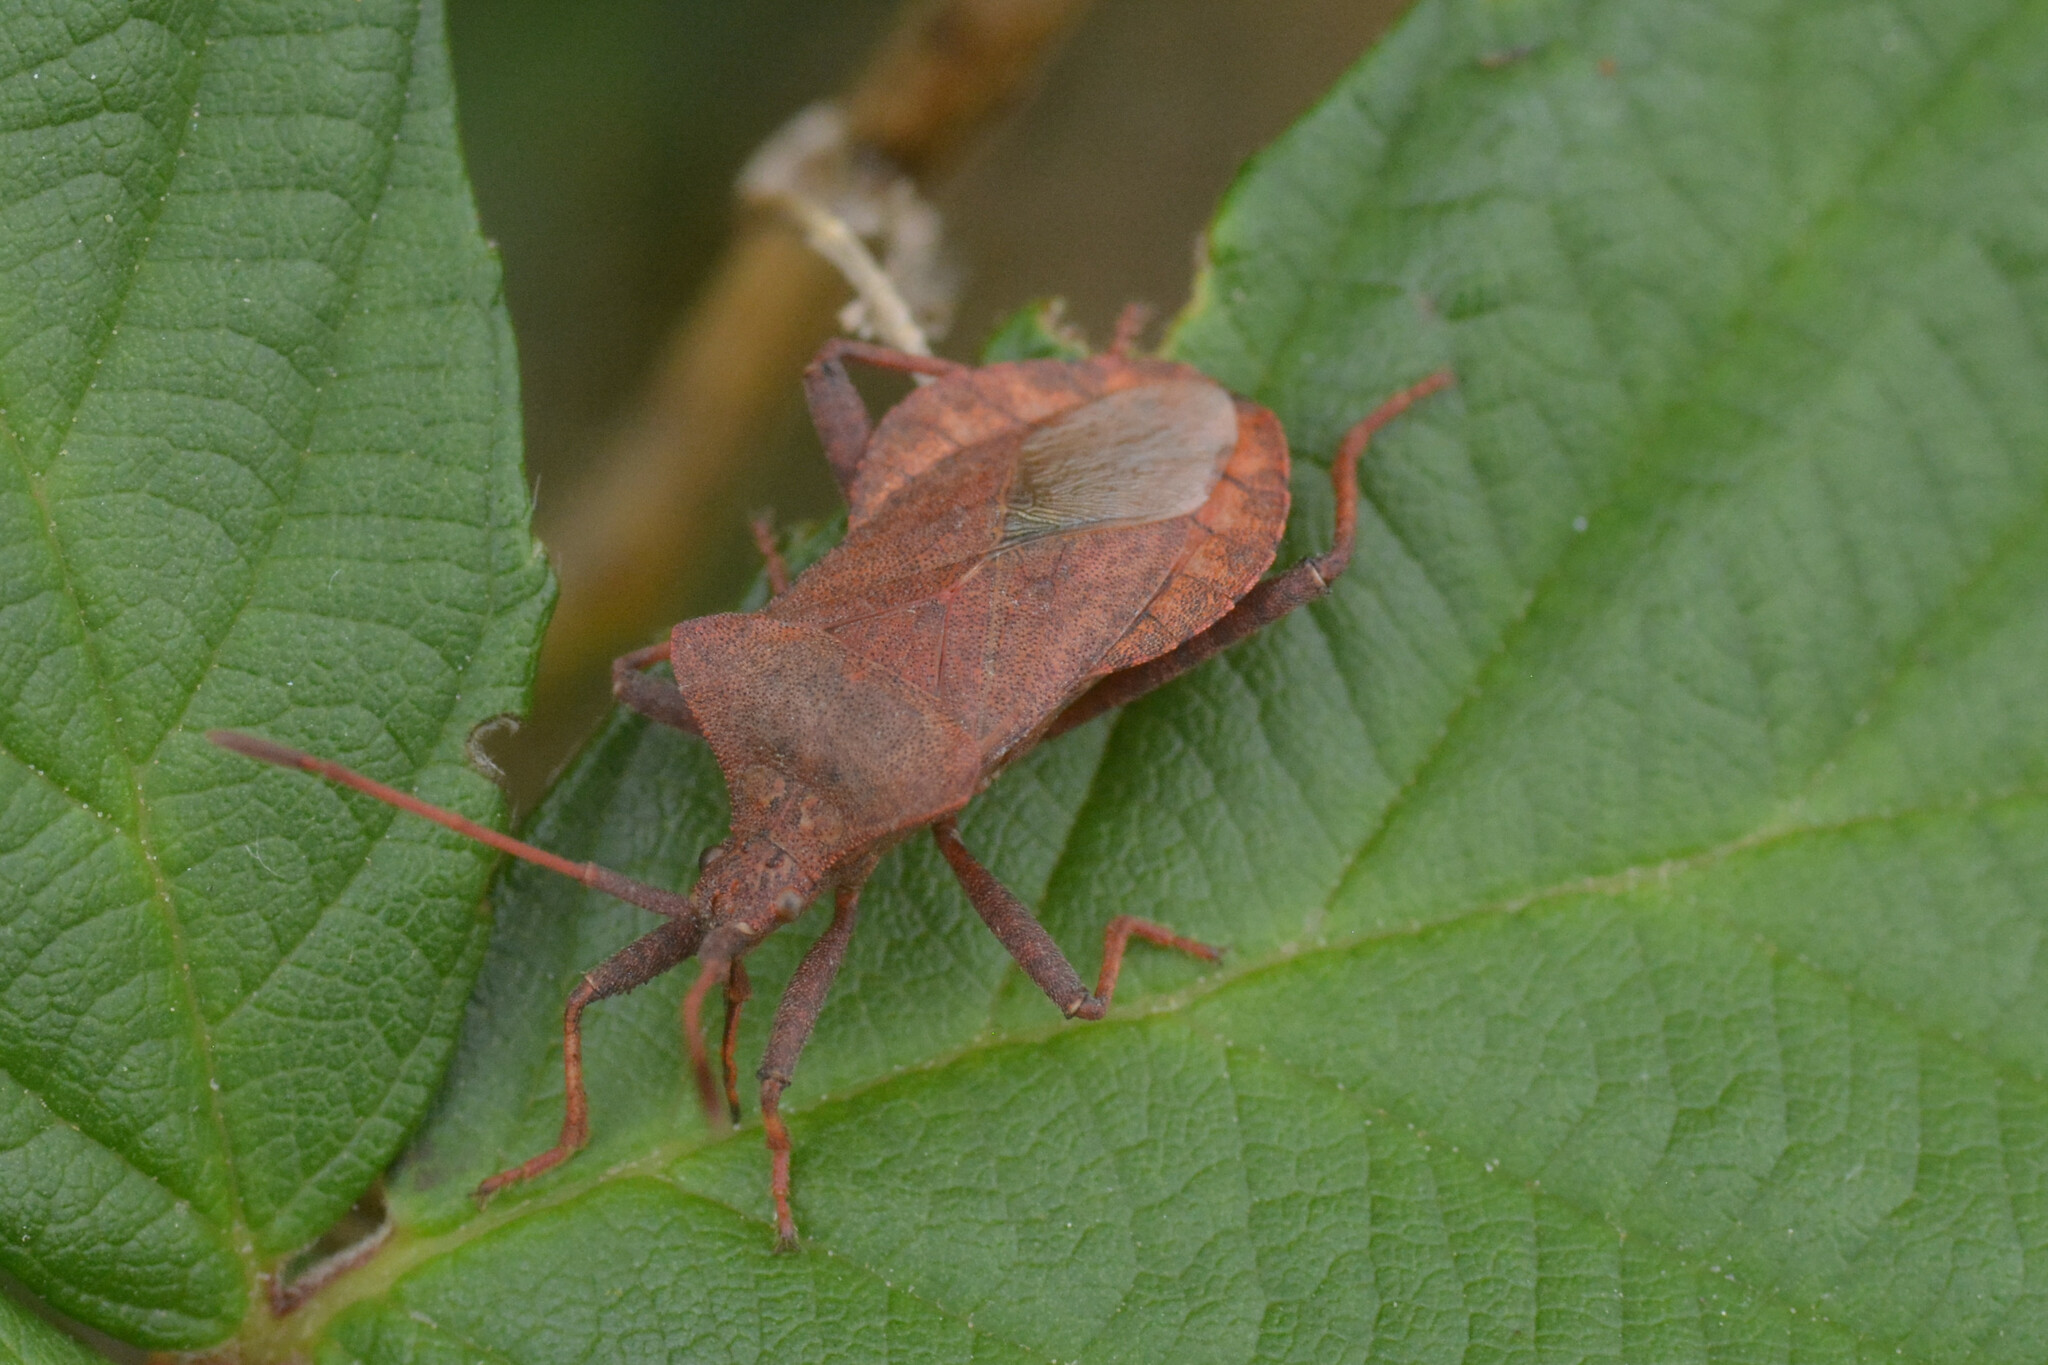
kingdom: Animalia
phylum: Arthropoda
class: Insecta
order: Hemiptera
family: Coreidae
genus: Coreus
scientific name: Coreus marginatus
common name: Dock bug
